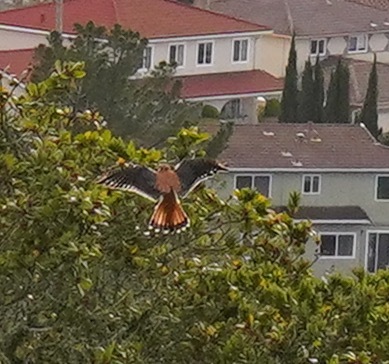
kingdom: Animalia
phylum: Chordata
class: Aves
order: Falconiformes
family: Falconidae
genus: Falco
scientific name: Falco sparverius
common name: American kestrel
